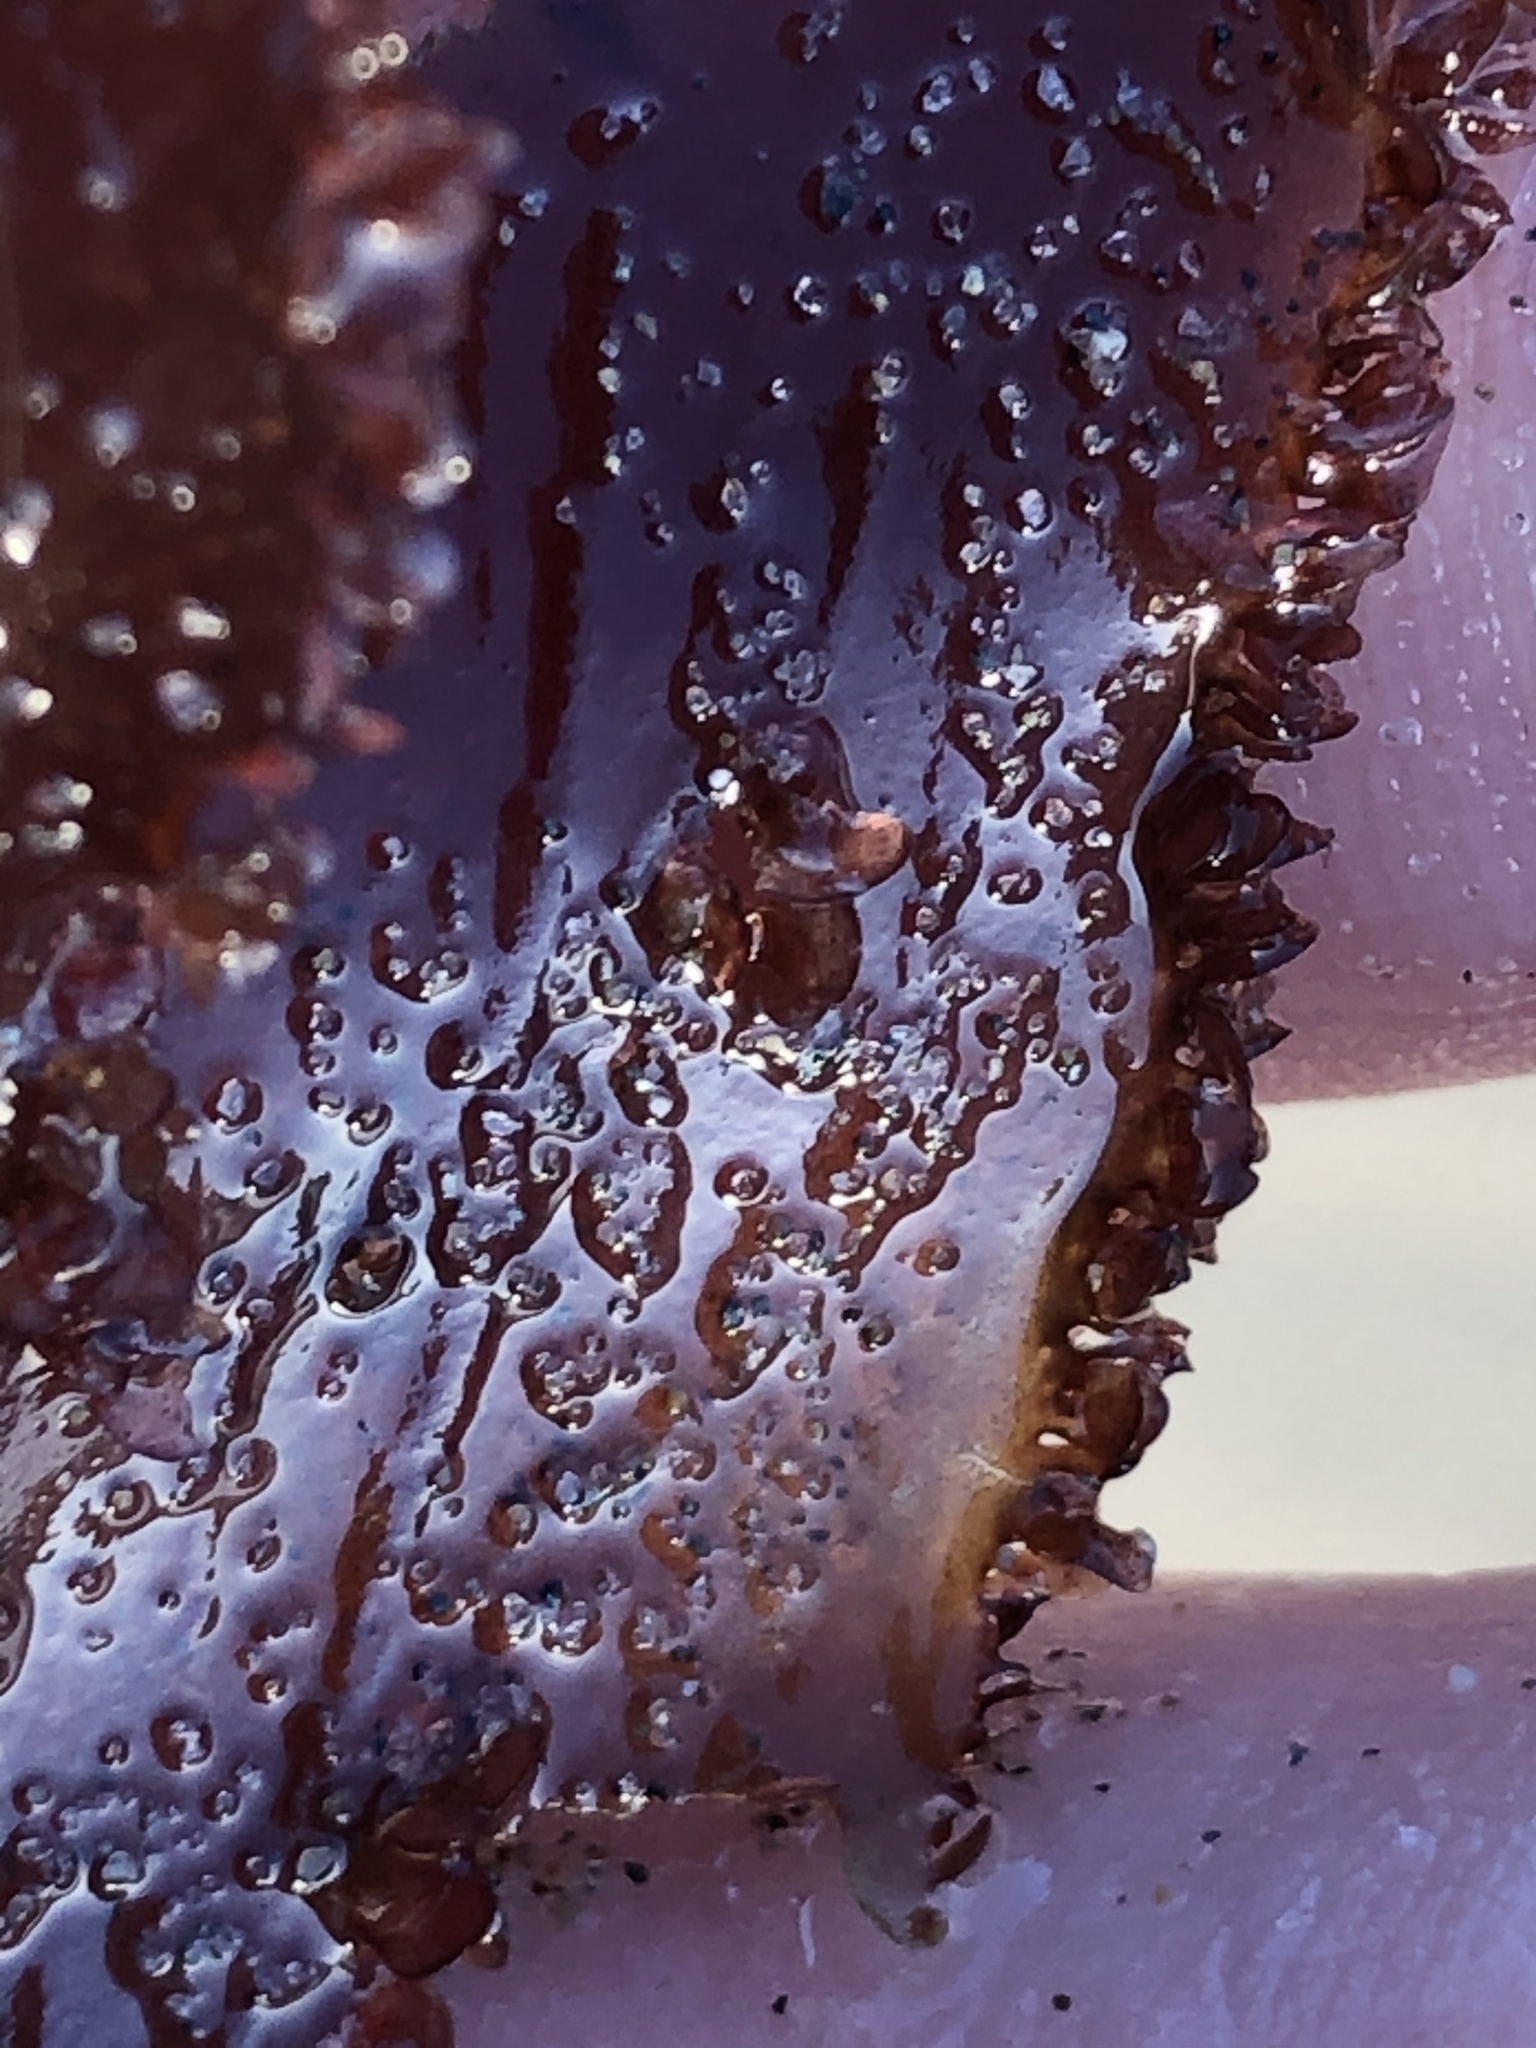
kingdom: Plantae
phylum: Rhodophyta
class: Florideophyceae
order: Ceramiales
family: Delesseriaceae
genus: Cryptopleura
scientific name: Cryptopleura ruprechtiana
